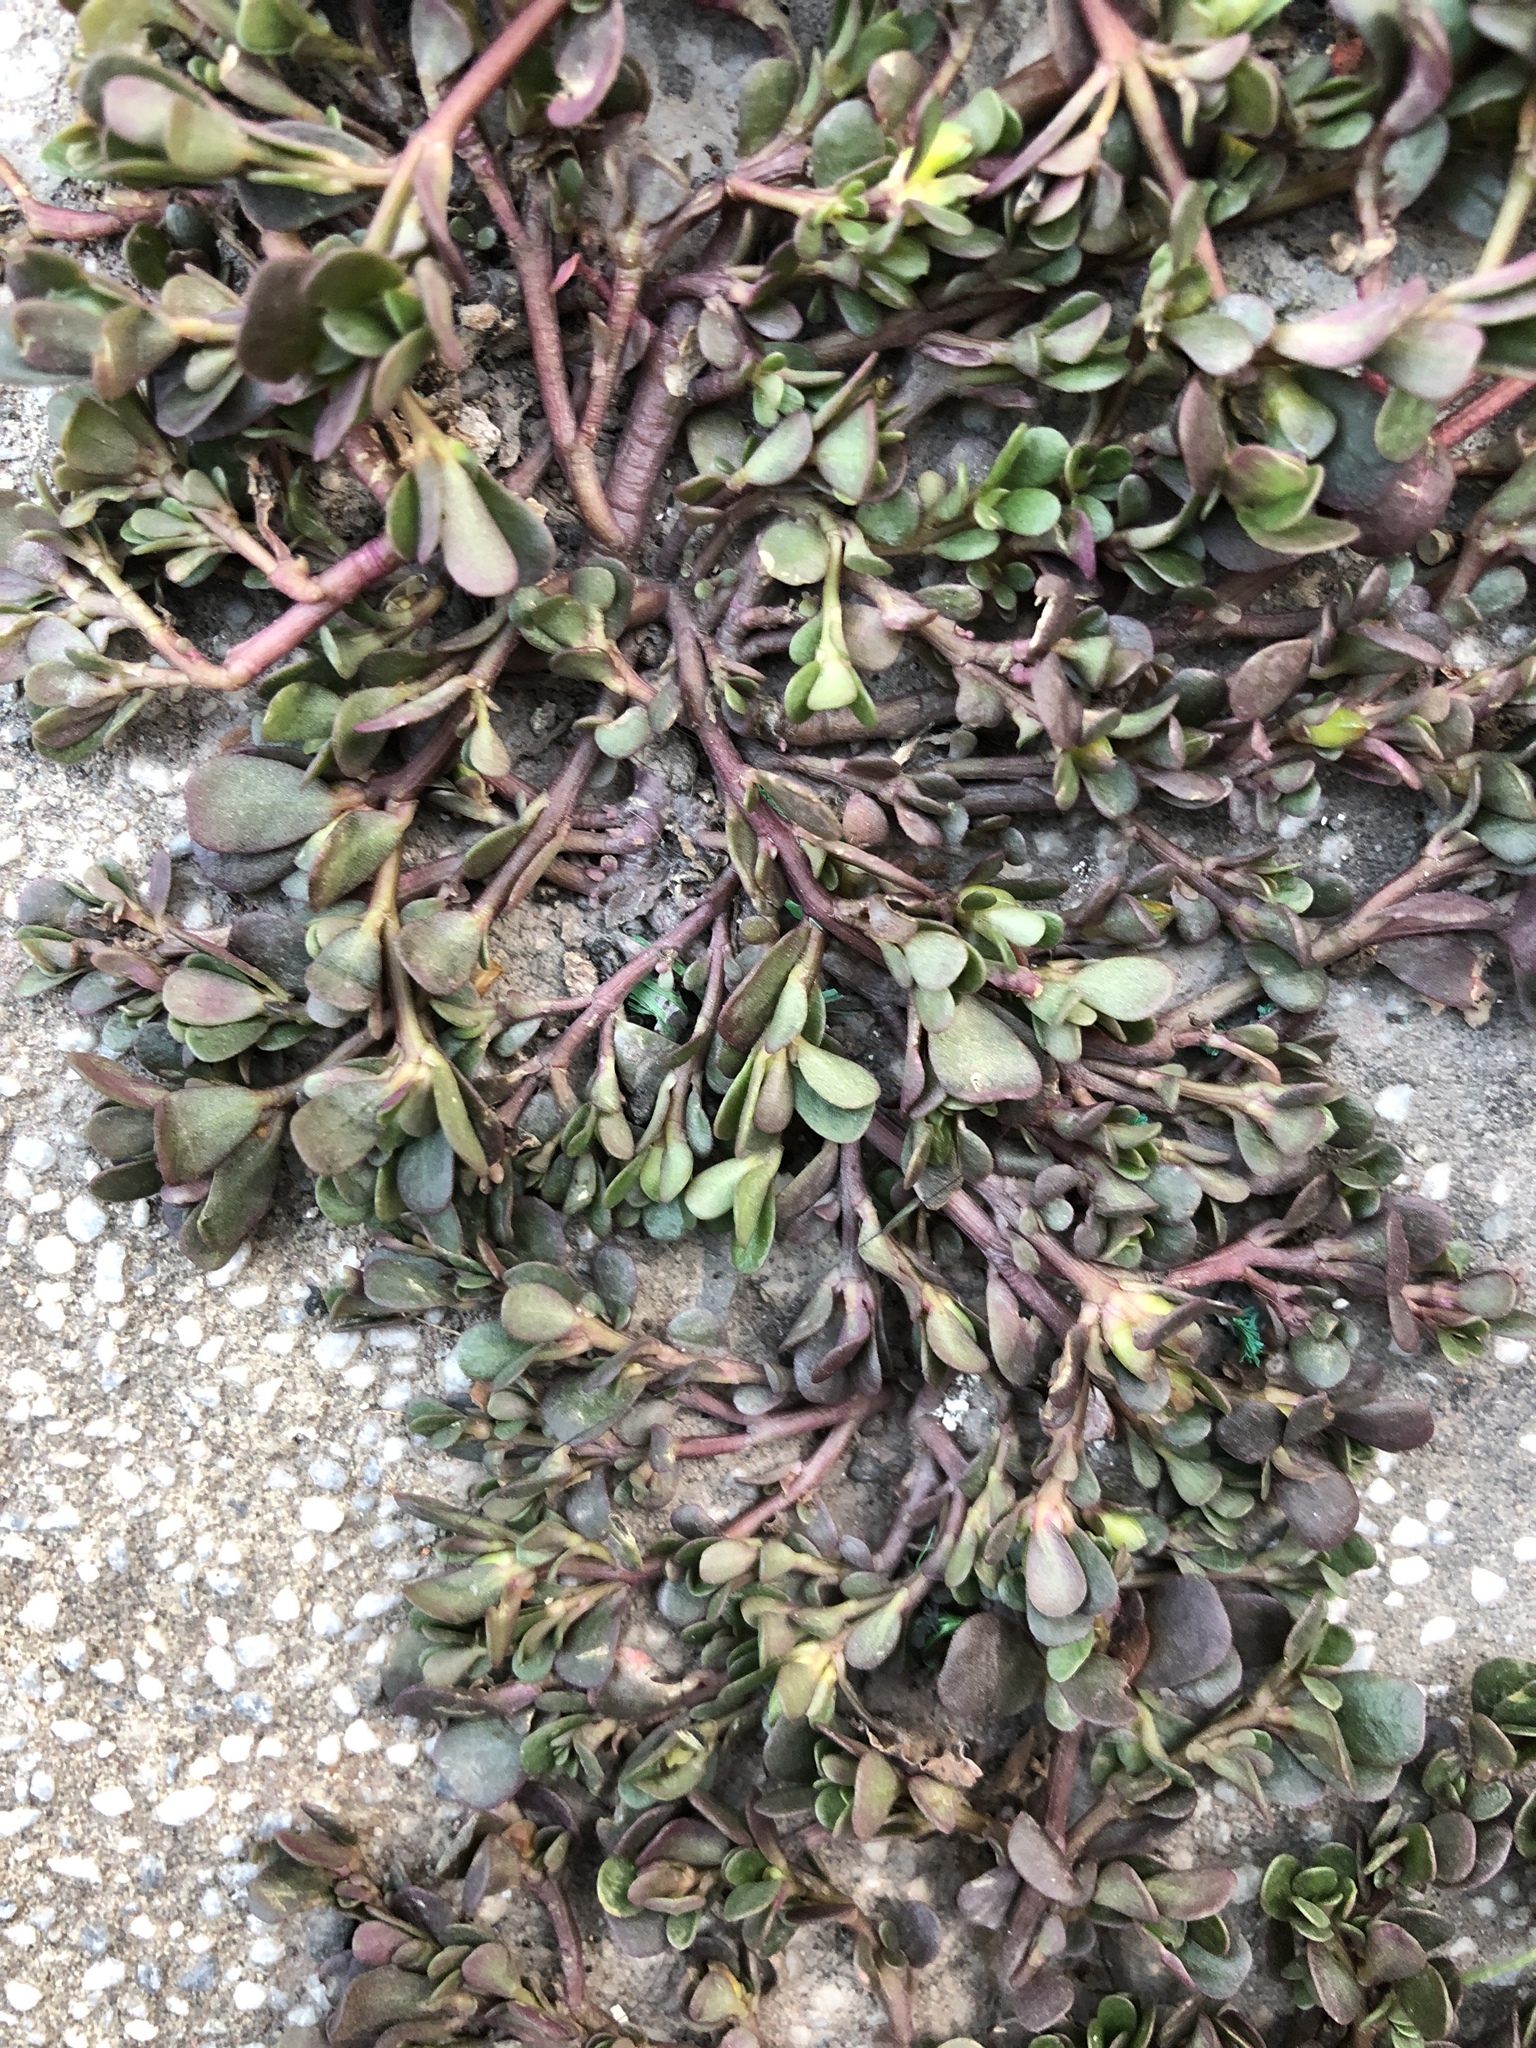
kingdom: Plantae
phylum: Tracheophyta
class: Magnoliopsida
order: Caryophyllales
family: Portulacaceae
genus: Portulaca
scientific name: Portulaca oleracea
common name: Common purslane
